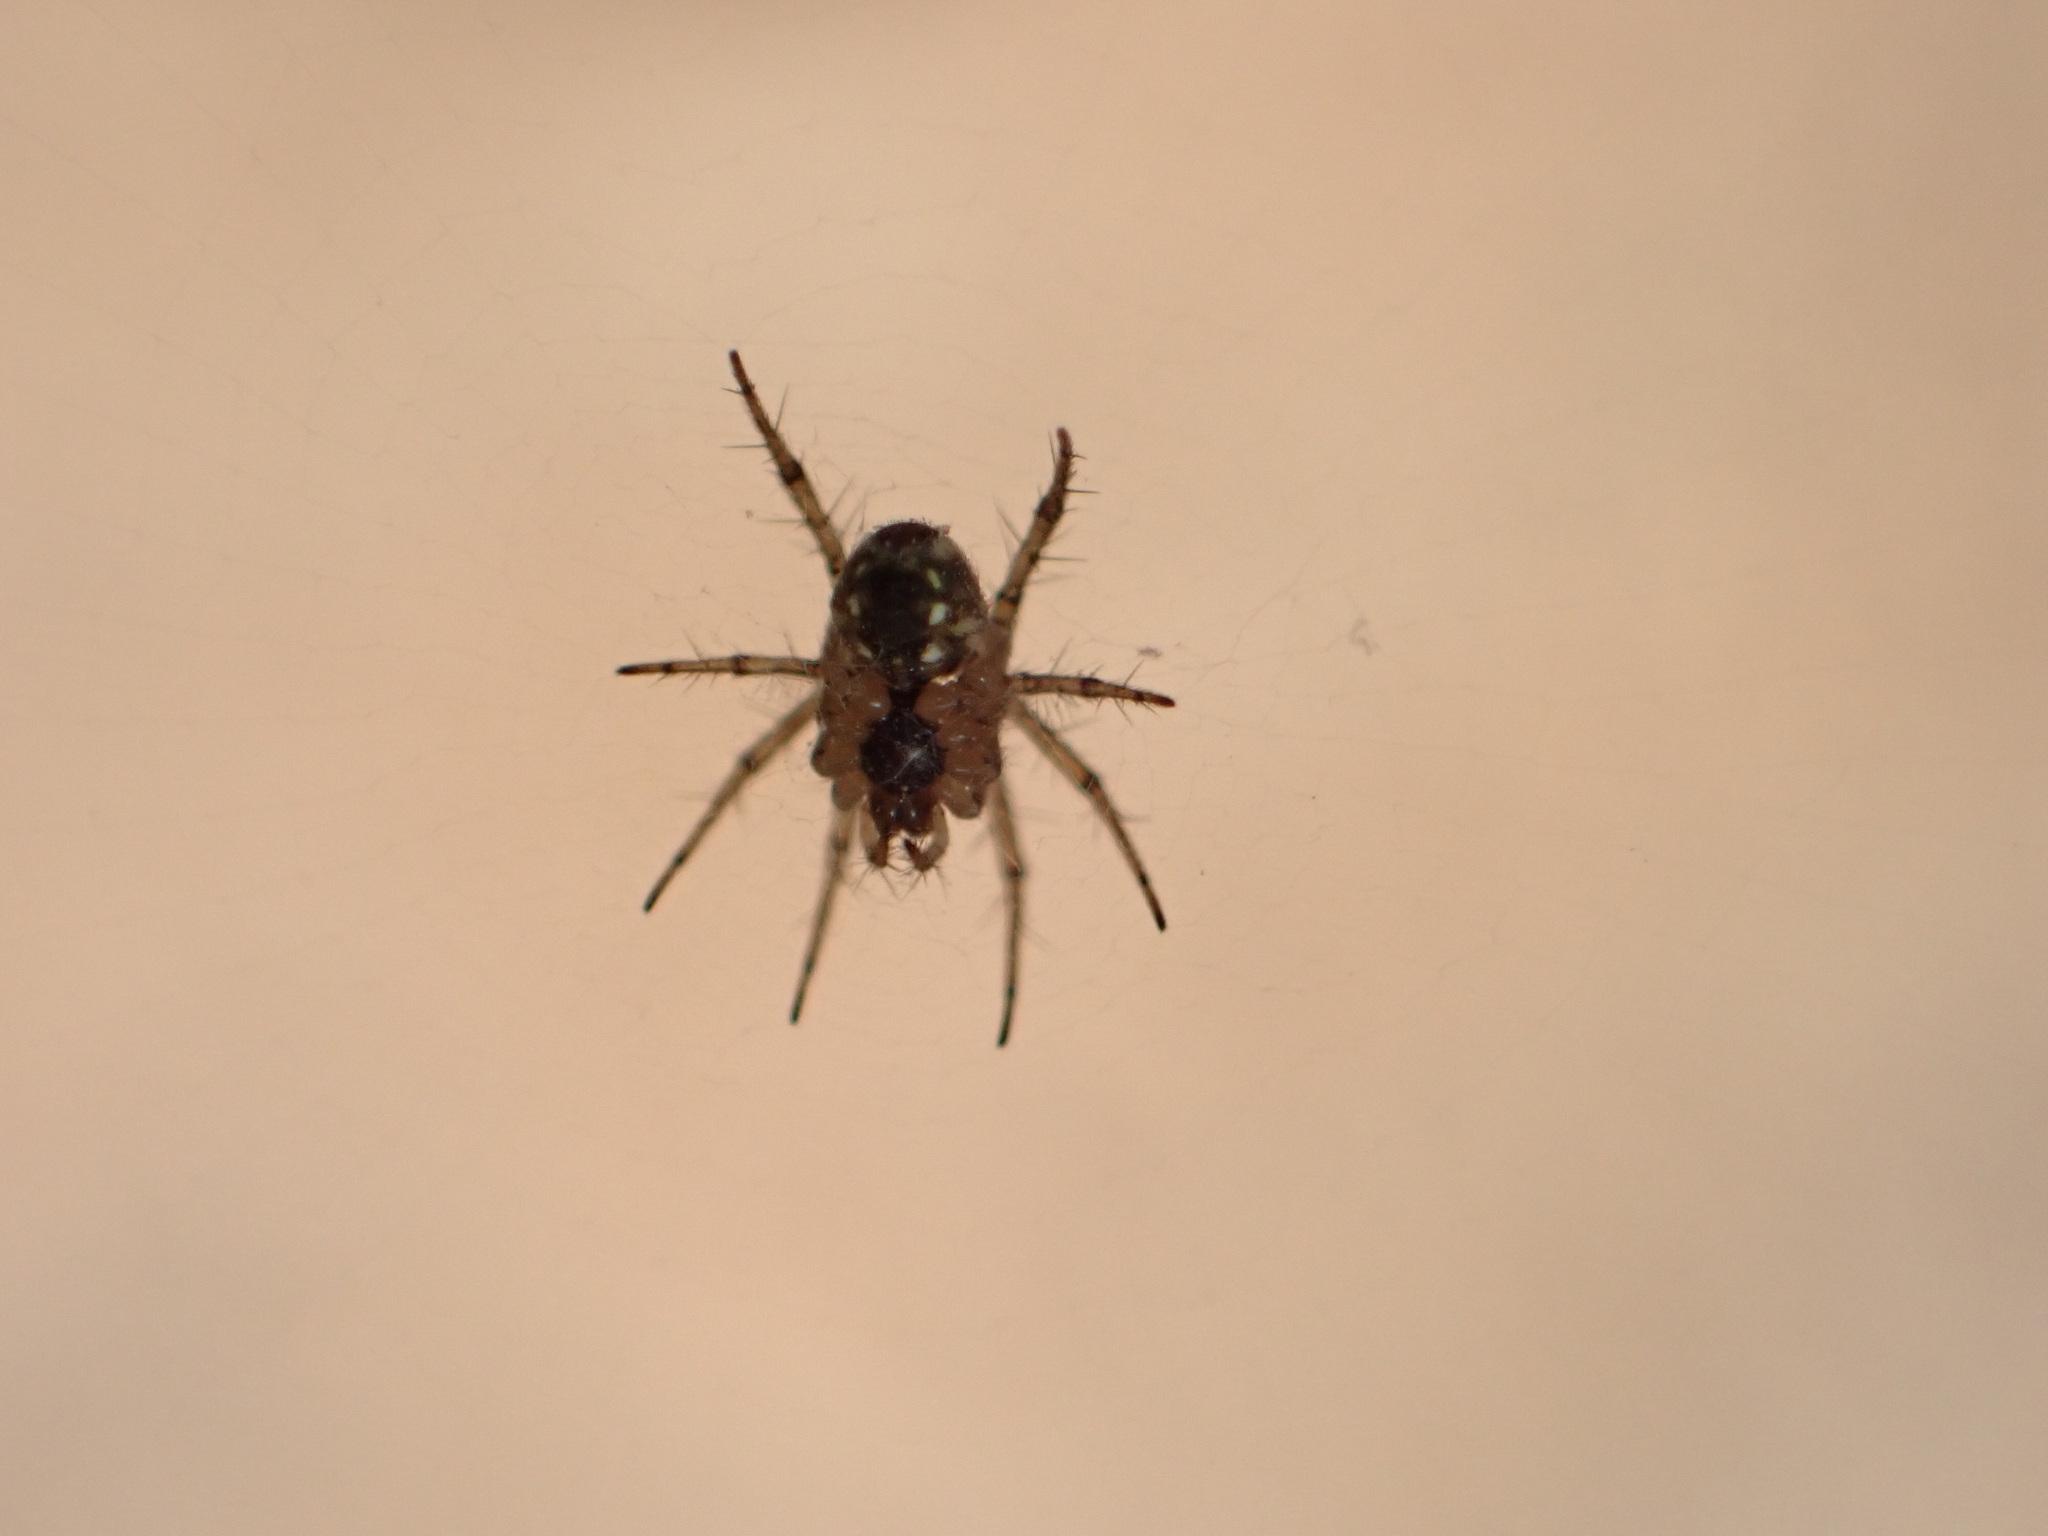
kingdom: Animalia
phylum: Arthropoda
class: Arachnida
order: Araneae
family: Araneidae
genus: Mangora
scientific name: Mangora acalypha
